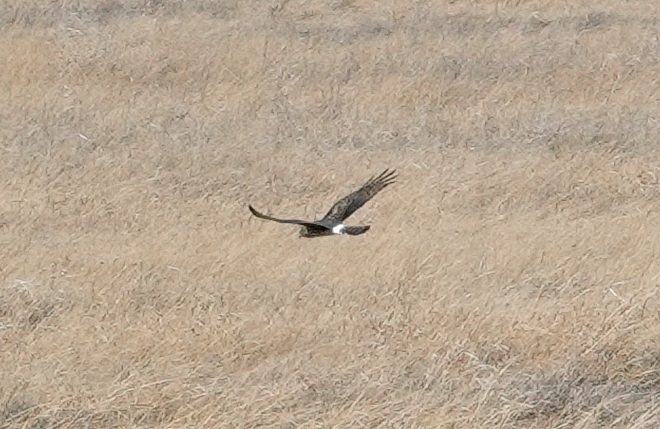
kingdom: Animalia
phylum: Chordata
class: Aves
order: Accipitriformes
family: Accipitridae
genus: Circus
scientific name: Circus cyaneus
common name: Hen harrier
